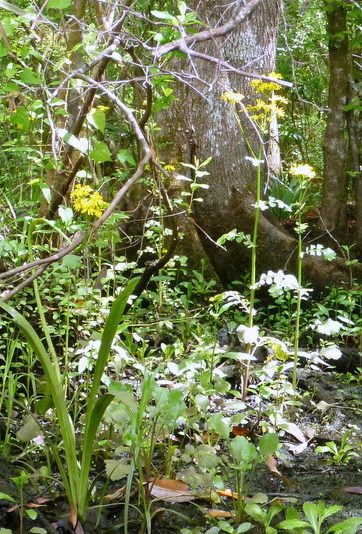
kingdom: Plantae
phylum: Tracheophyta
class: Magnoliopsida
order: Asterales
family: Asteraceae
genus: Packera
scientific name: Packera glabella
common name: Butterweed
